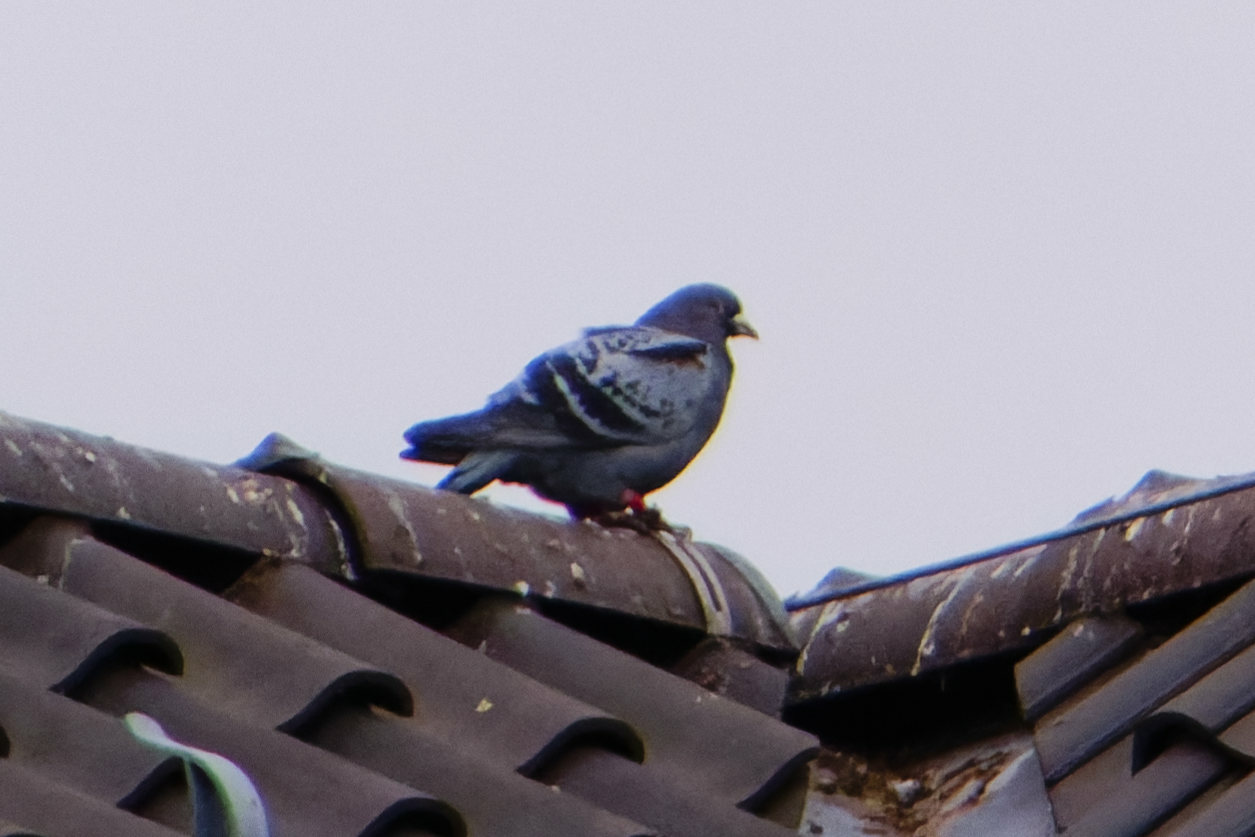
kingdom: Animalia
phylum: Chordata
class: Aves
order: Columbiformes
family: Columbidae
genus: Columba
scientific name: Columba livia
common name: Rock pigeon
